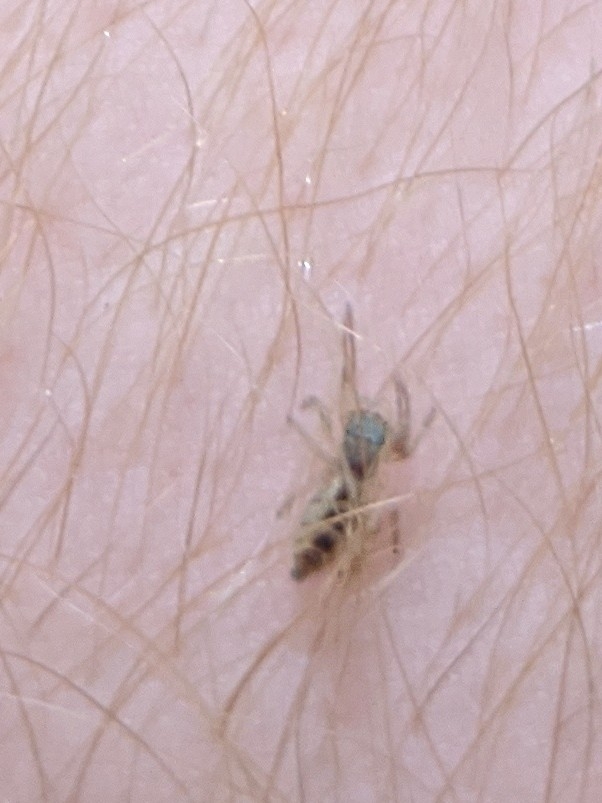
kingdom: Animalia
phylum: Arthropoda
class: Arachnida
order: Araneae
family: Salticidae
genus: Hentzia
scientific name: Hentzia
